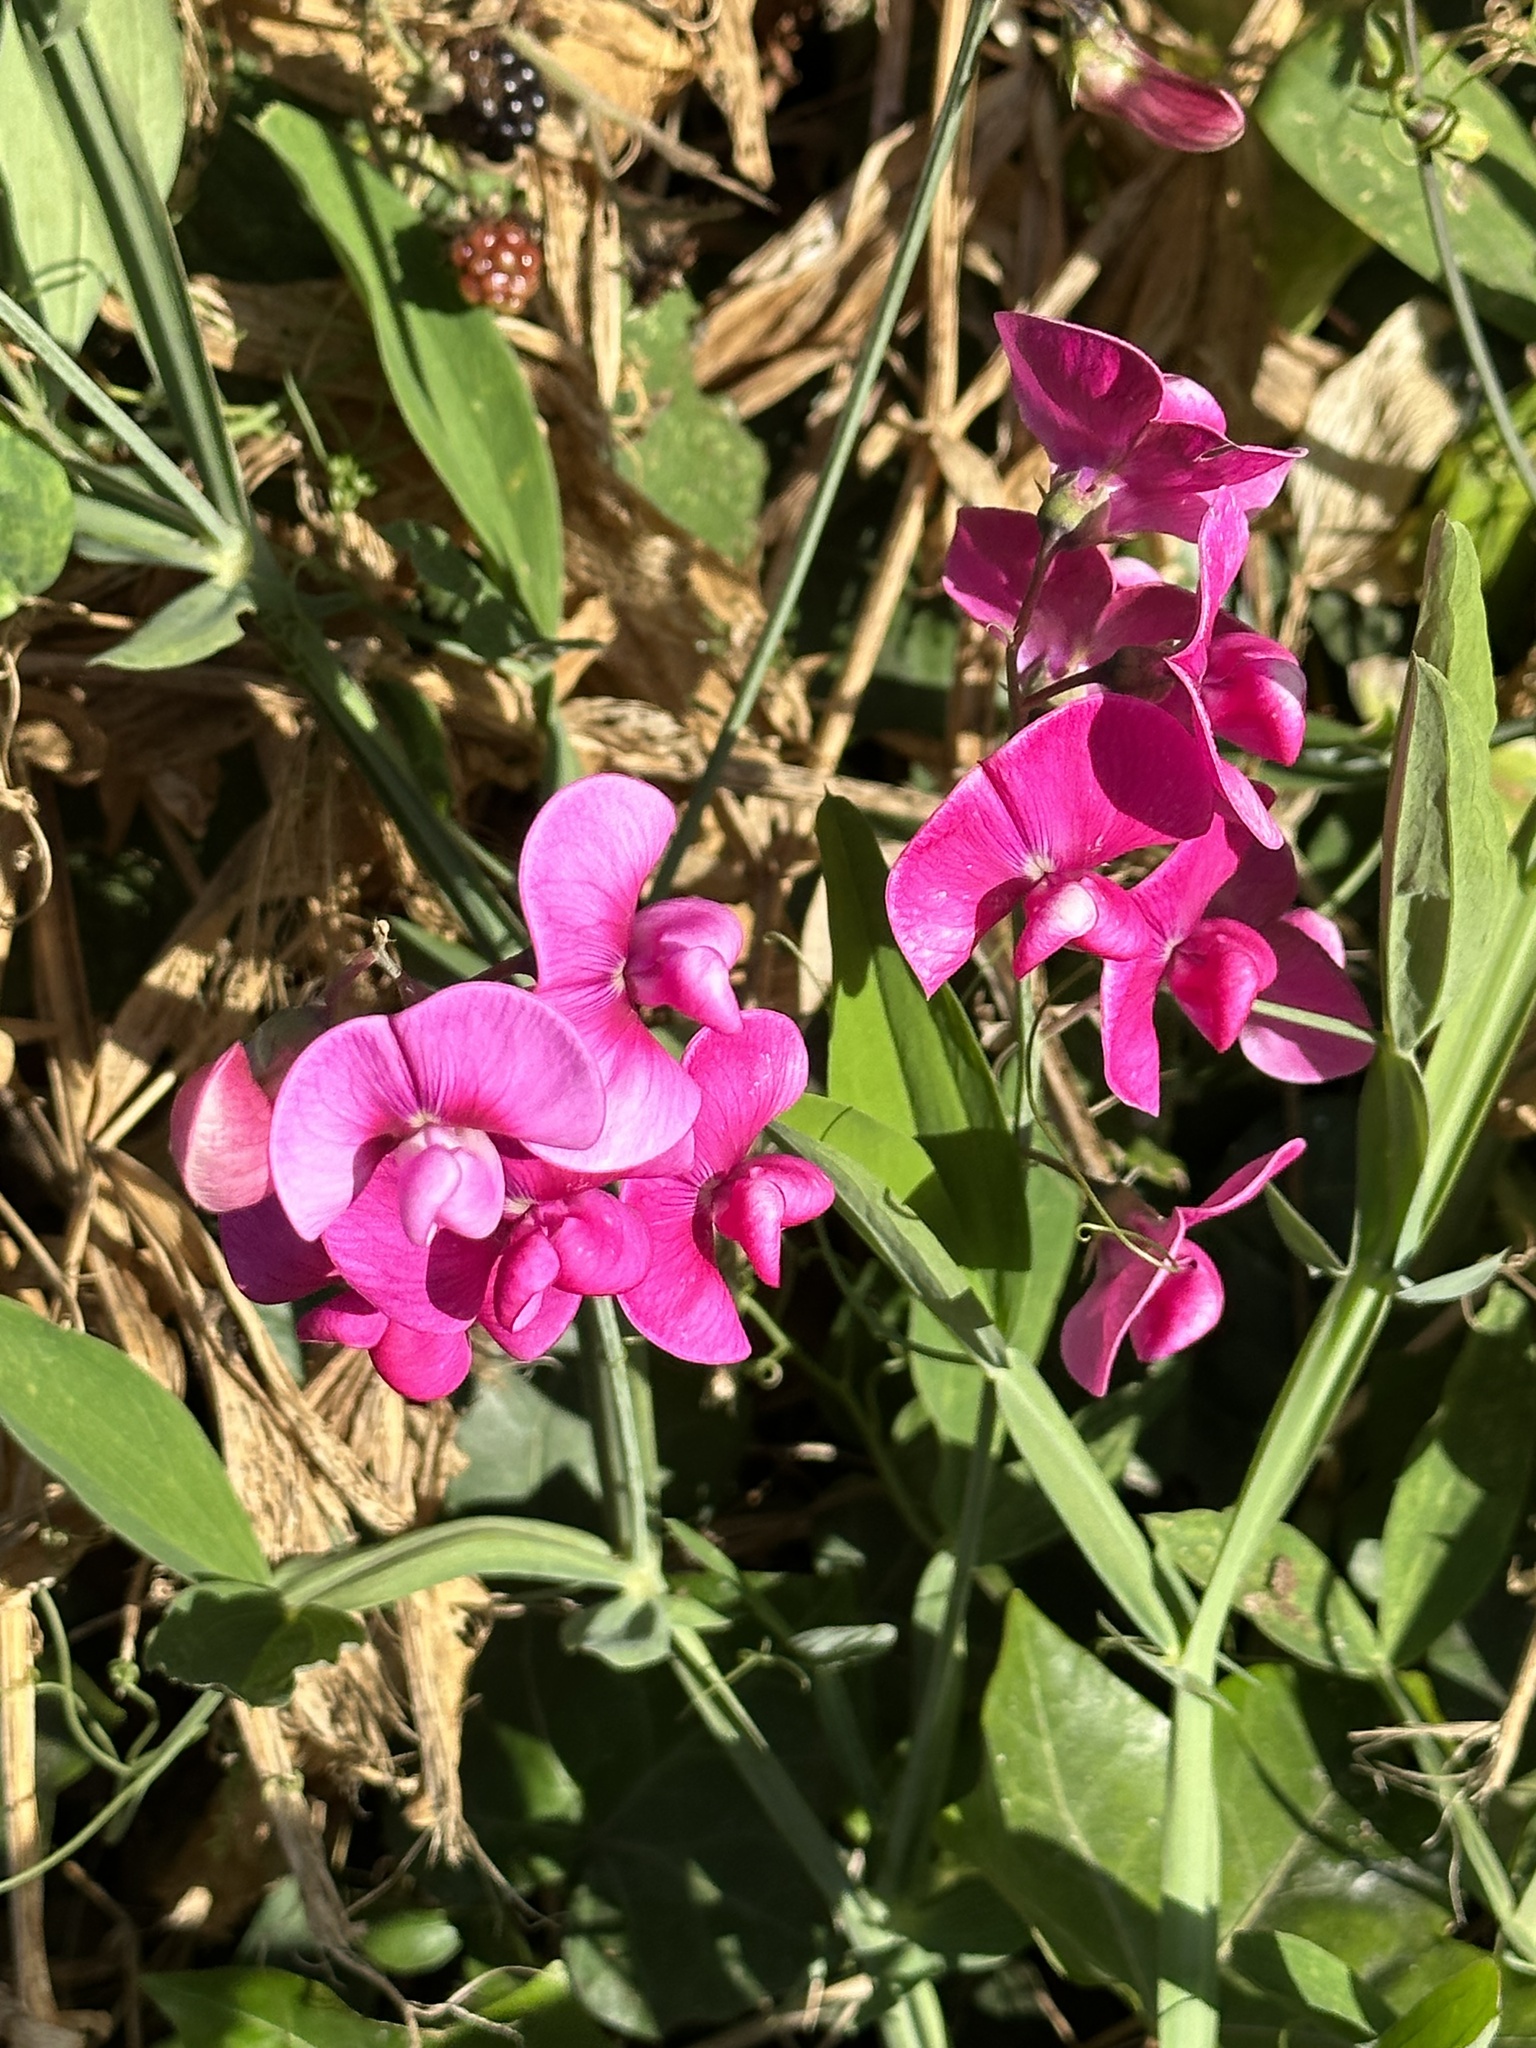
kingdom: Plantae
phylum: Tracheophyta
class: Magnoliopsida
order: Fabales
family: Fabaceae
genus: Lathyrus
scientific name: Lathyrus latifolius
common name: Perennial pea
